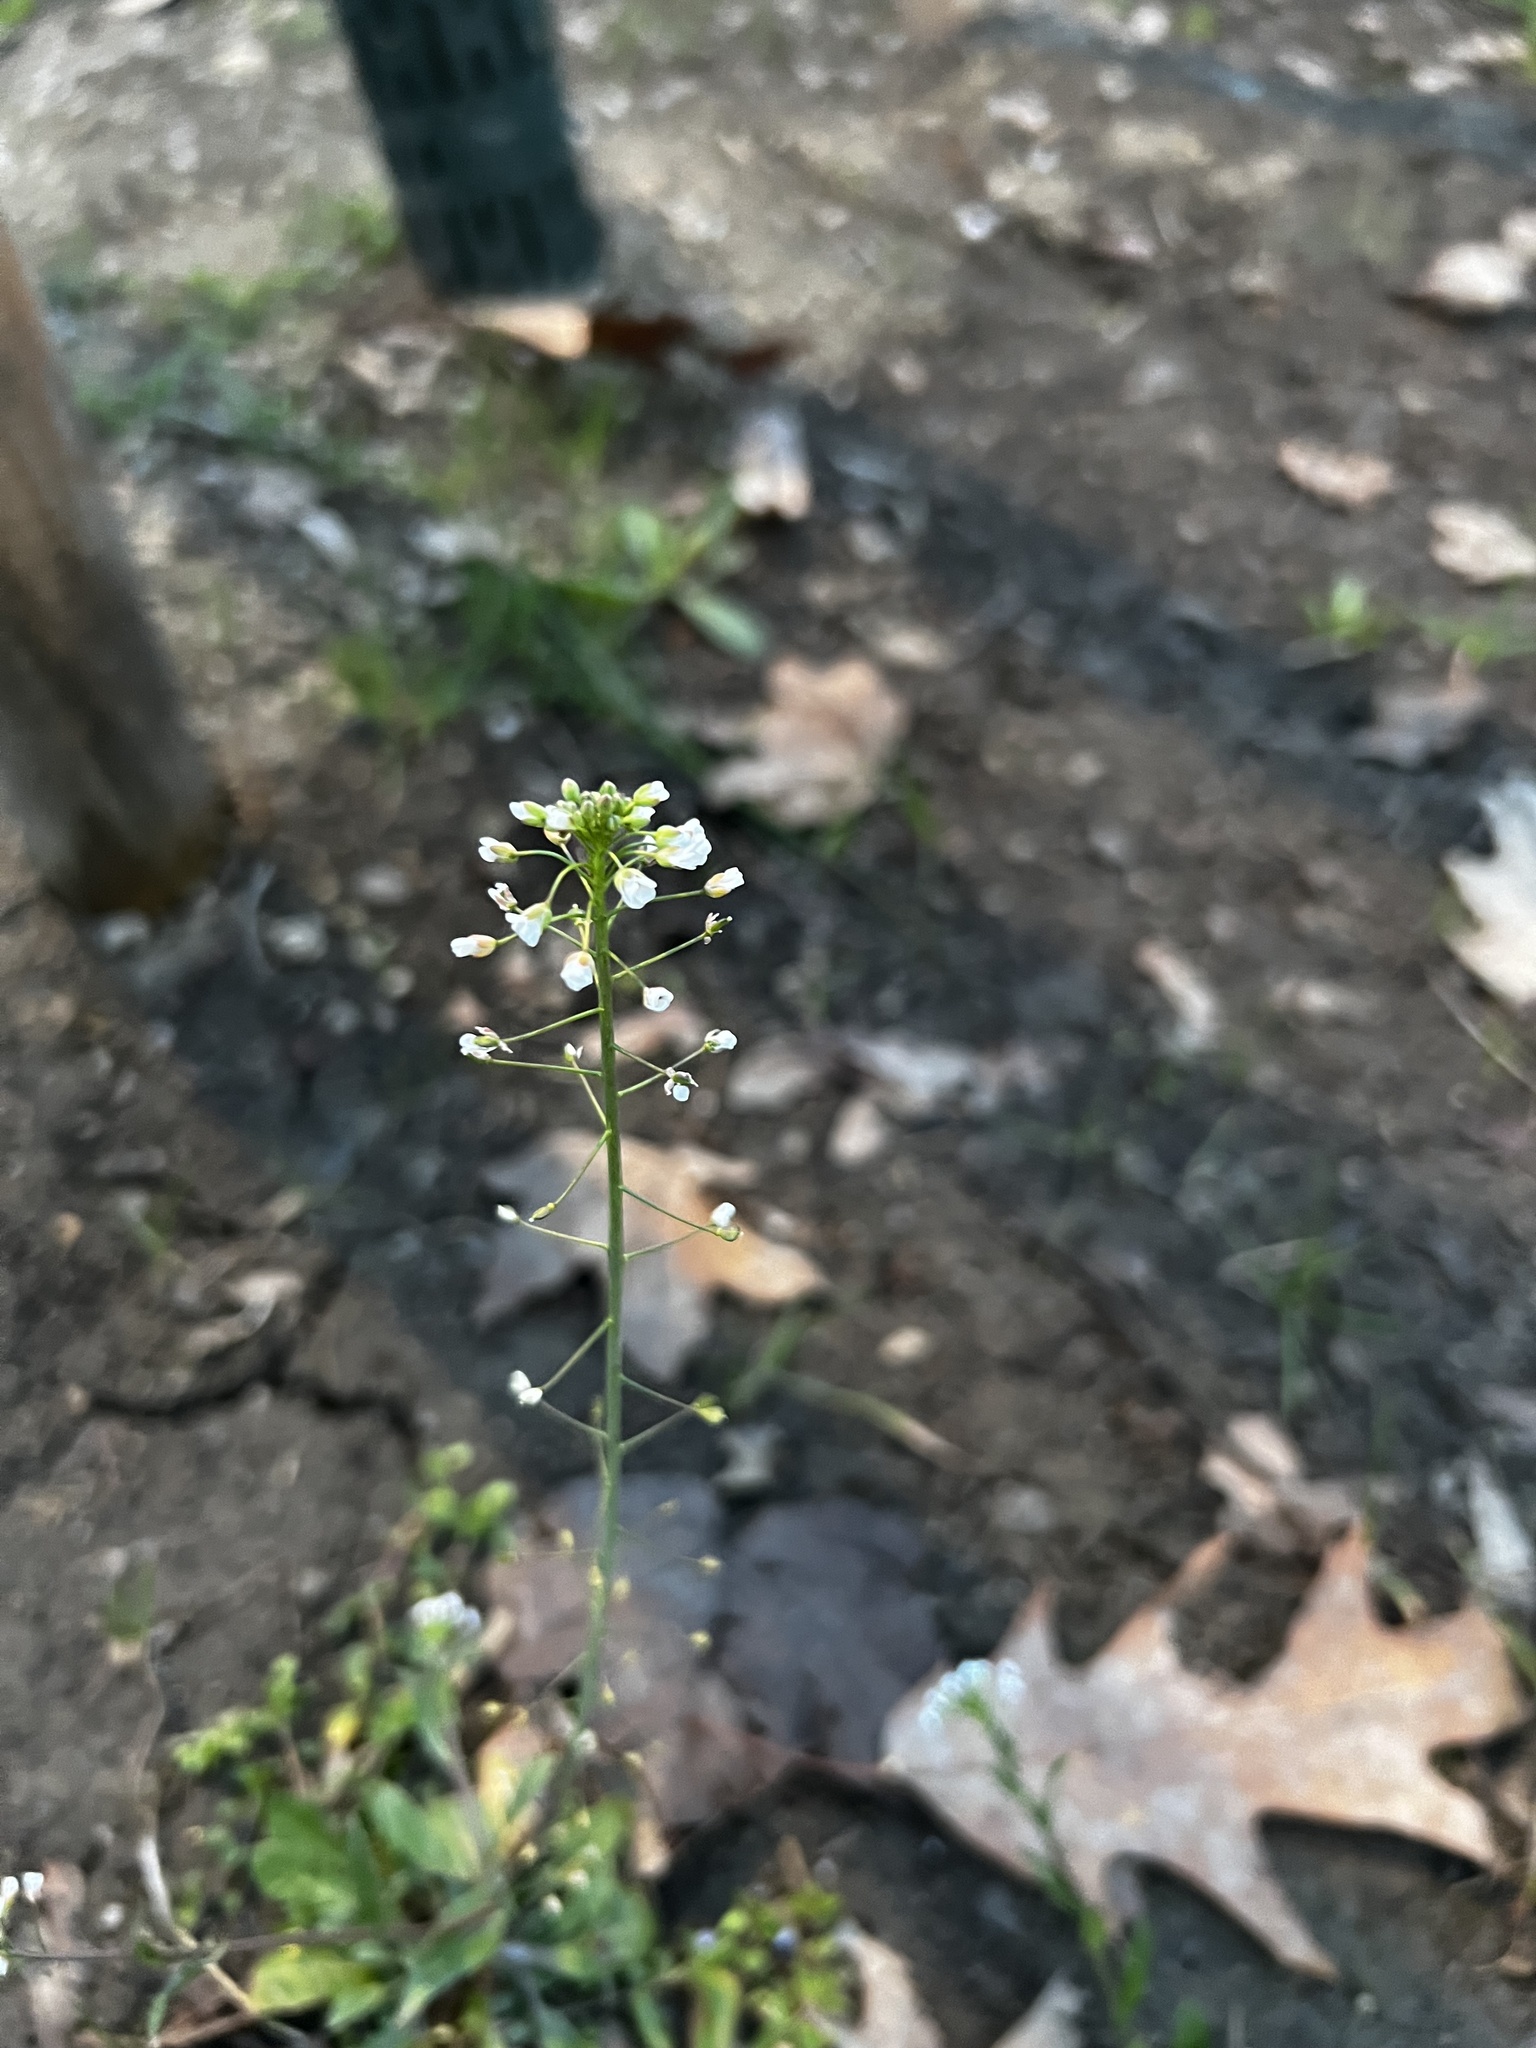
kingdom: Plantae
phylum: Tracheophyta
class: Magnoliopsida
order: Brassicales
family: Brassicaceae
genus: Capsella
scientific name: Capsella bursa-pastoris
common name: Shepherd's purse
